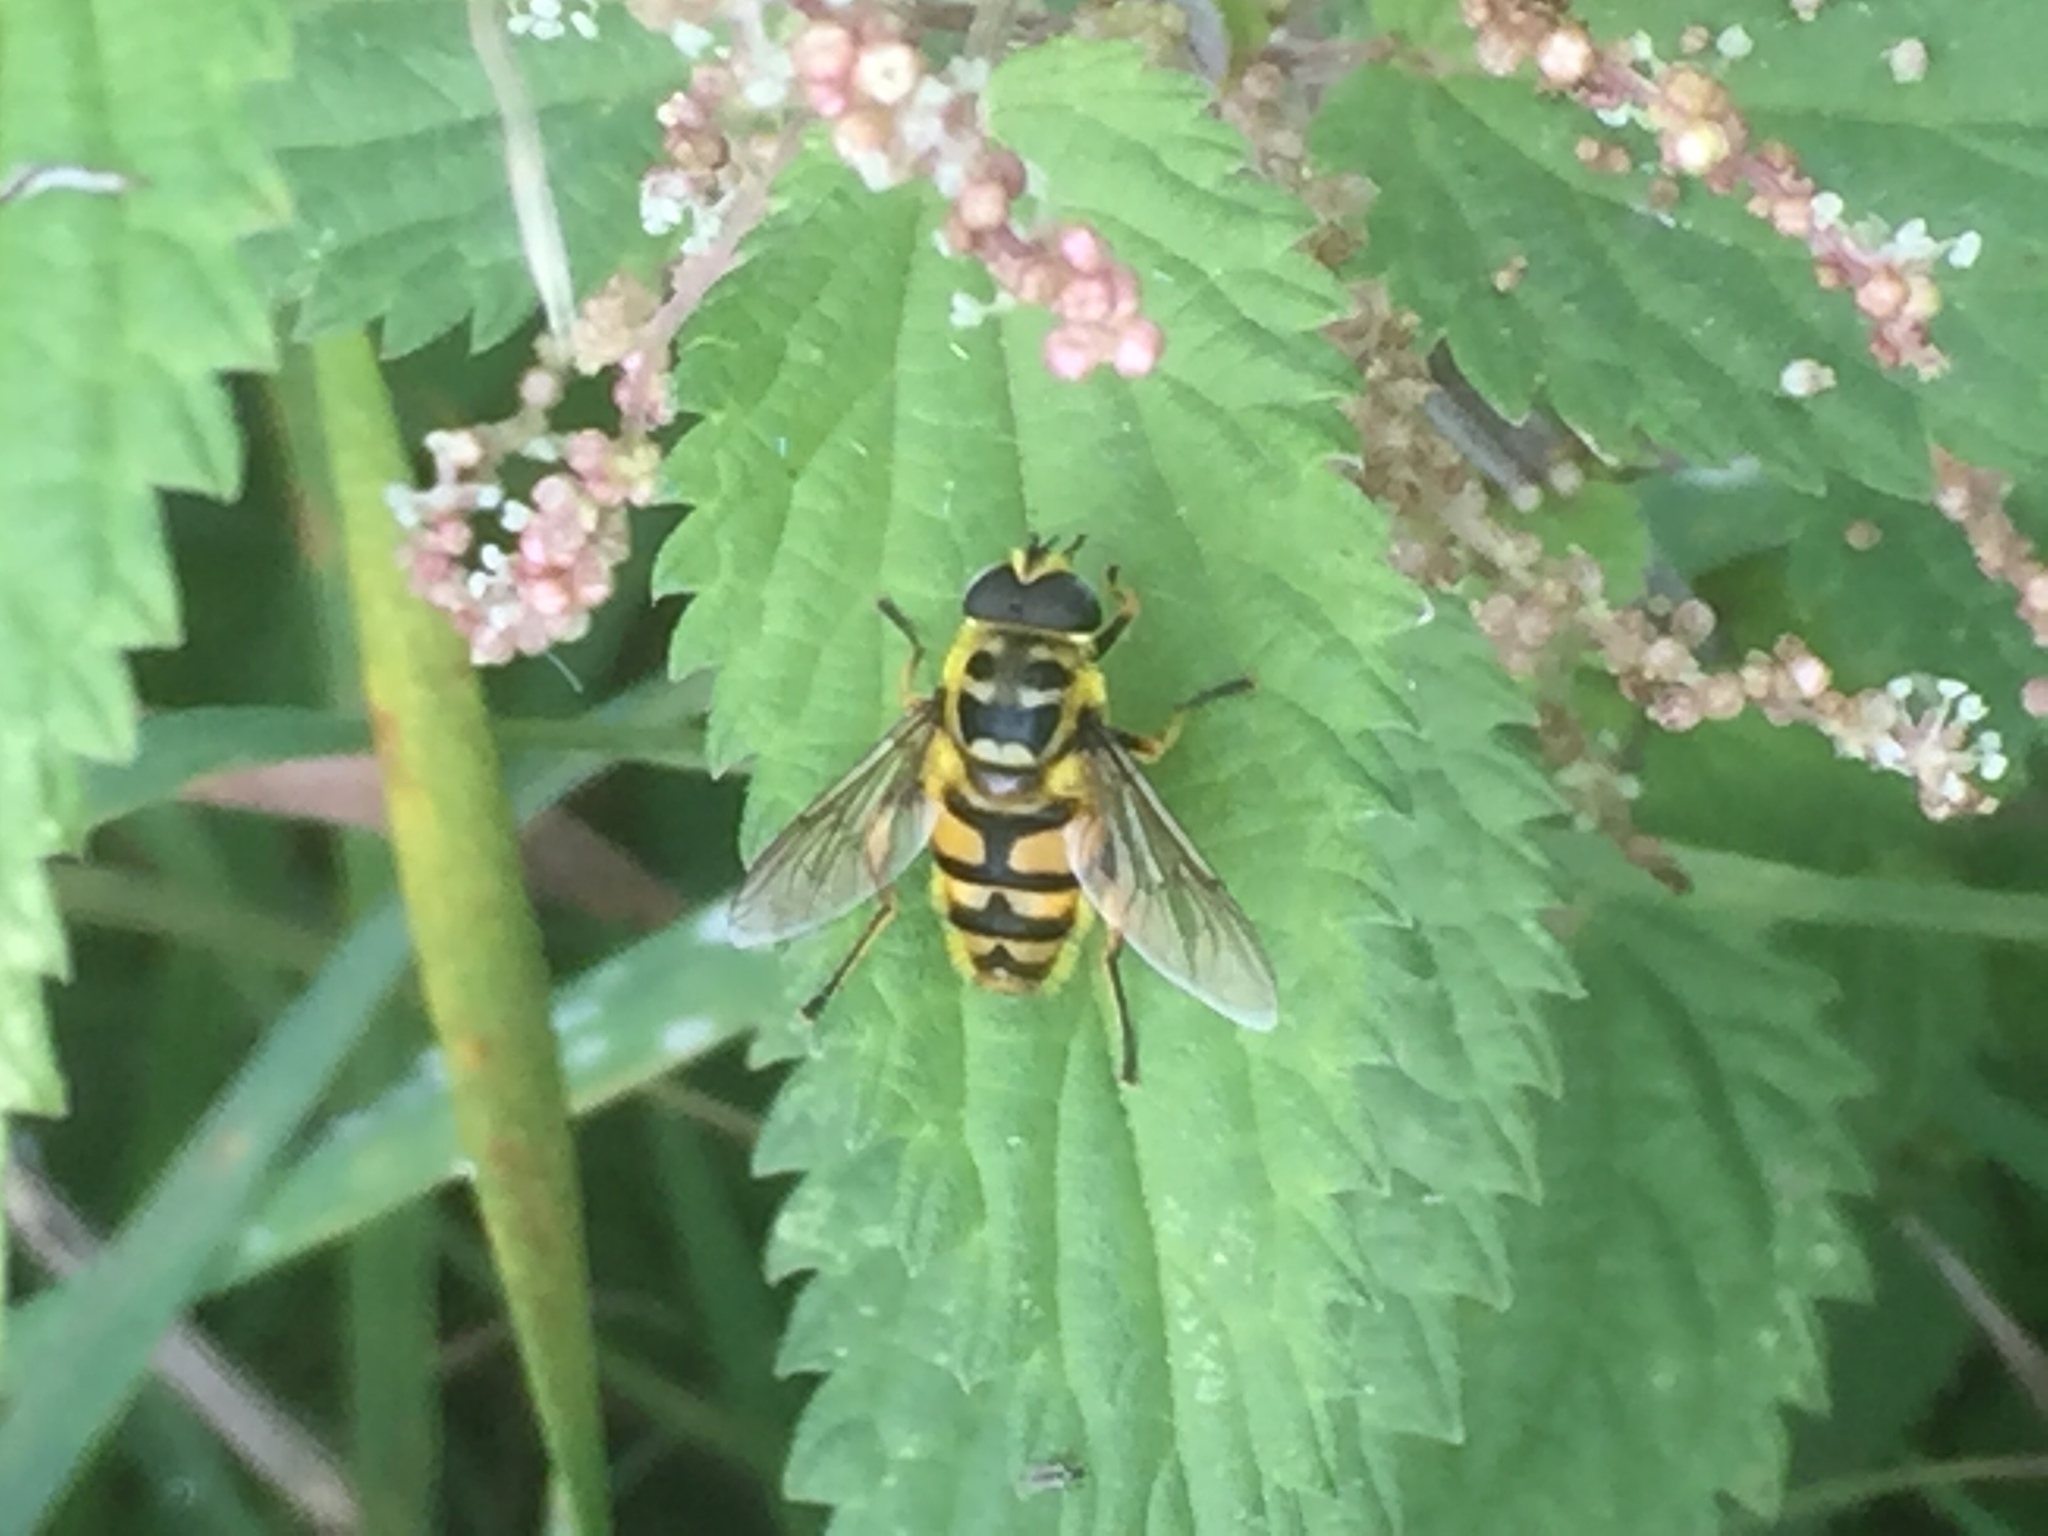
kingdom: Animalia
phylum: Arthropoda
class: Insecta
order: Diptera
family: Syrphidae
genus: Myathropa
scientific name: Myathropa florea
